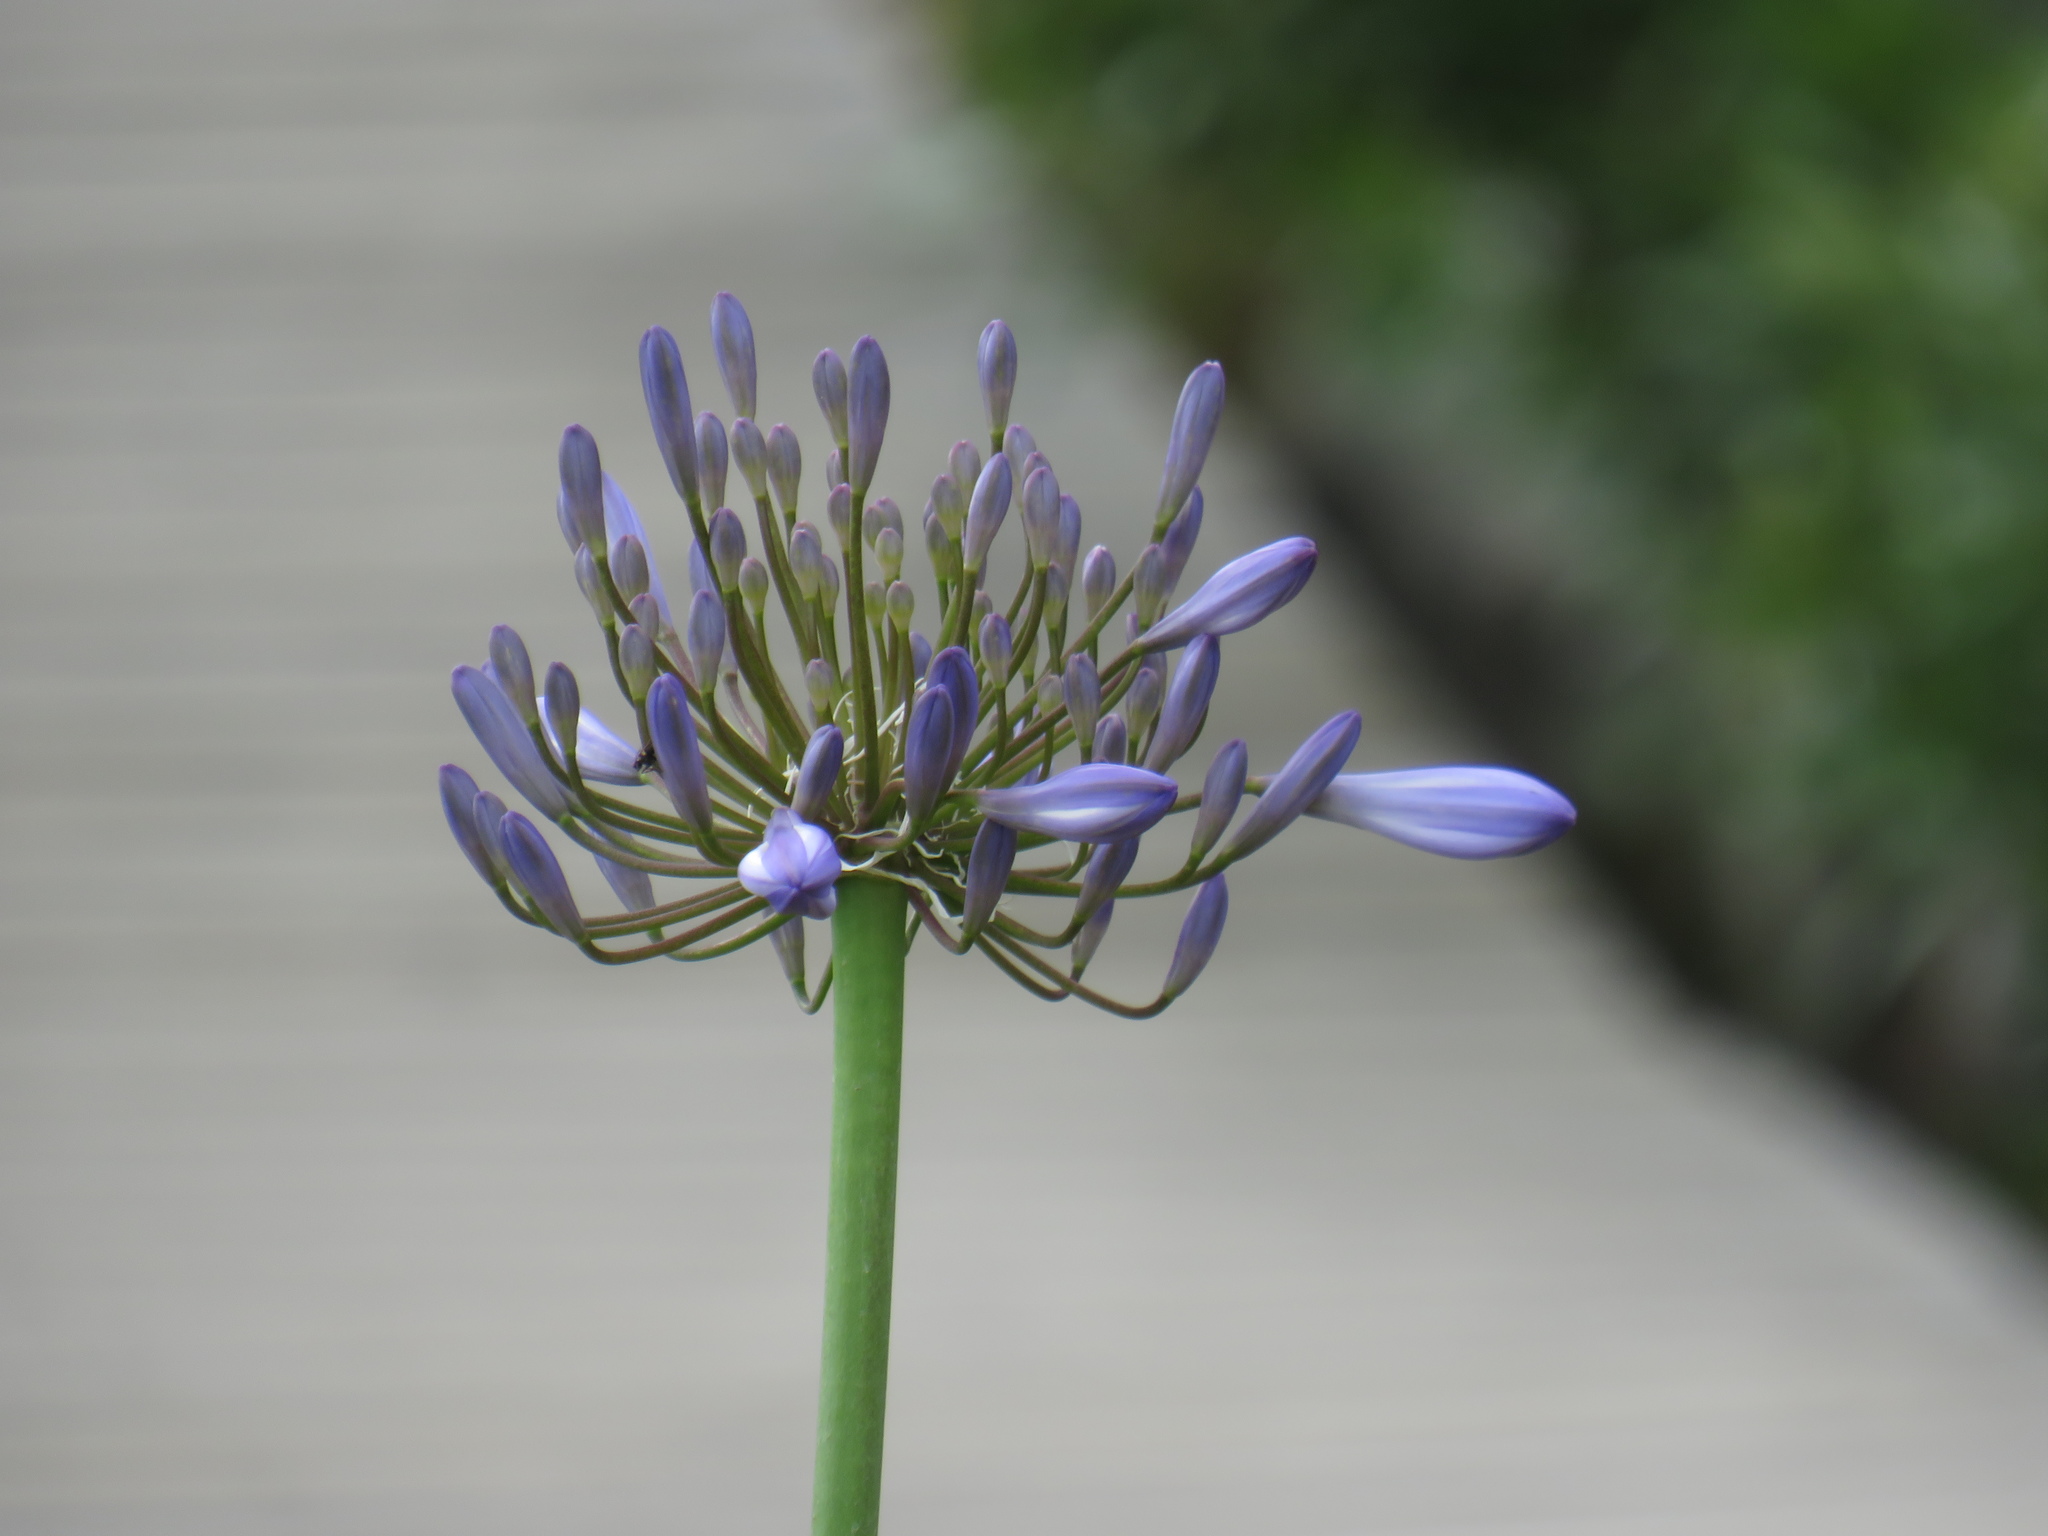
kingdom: Plantae
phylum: Tracheophyta
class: Liliopsida
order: Asparagales
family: Amaryllidaceae
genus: Agapanthus
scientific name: Agapanthus praecox
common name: African-lily
